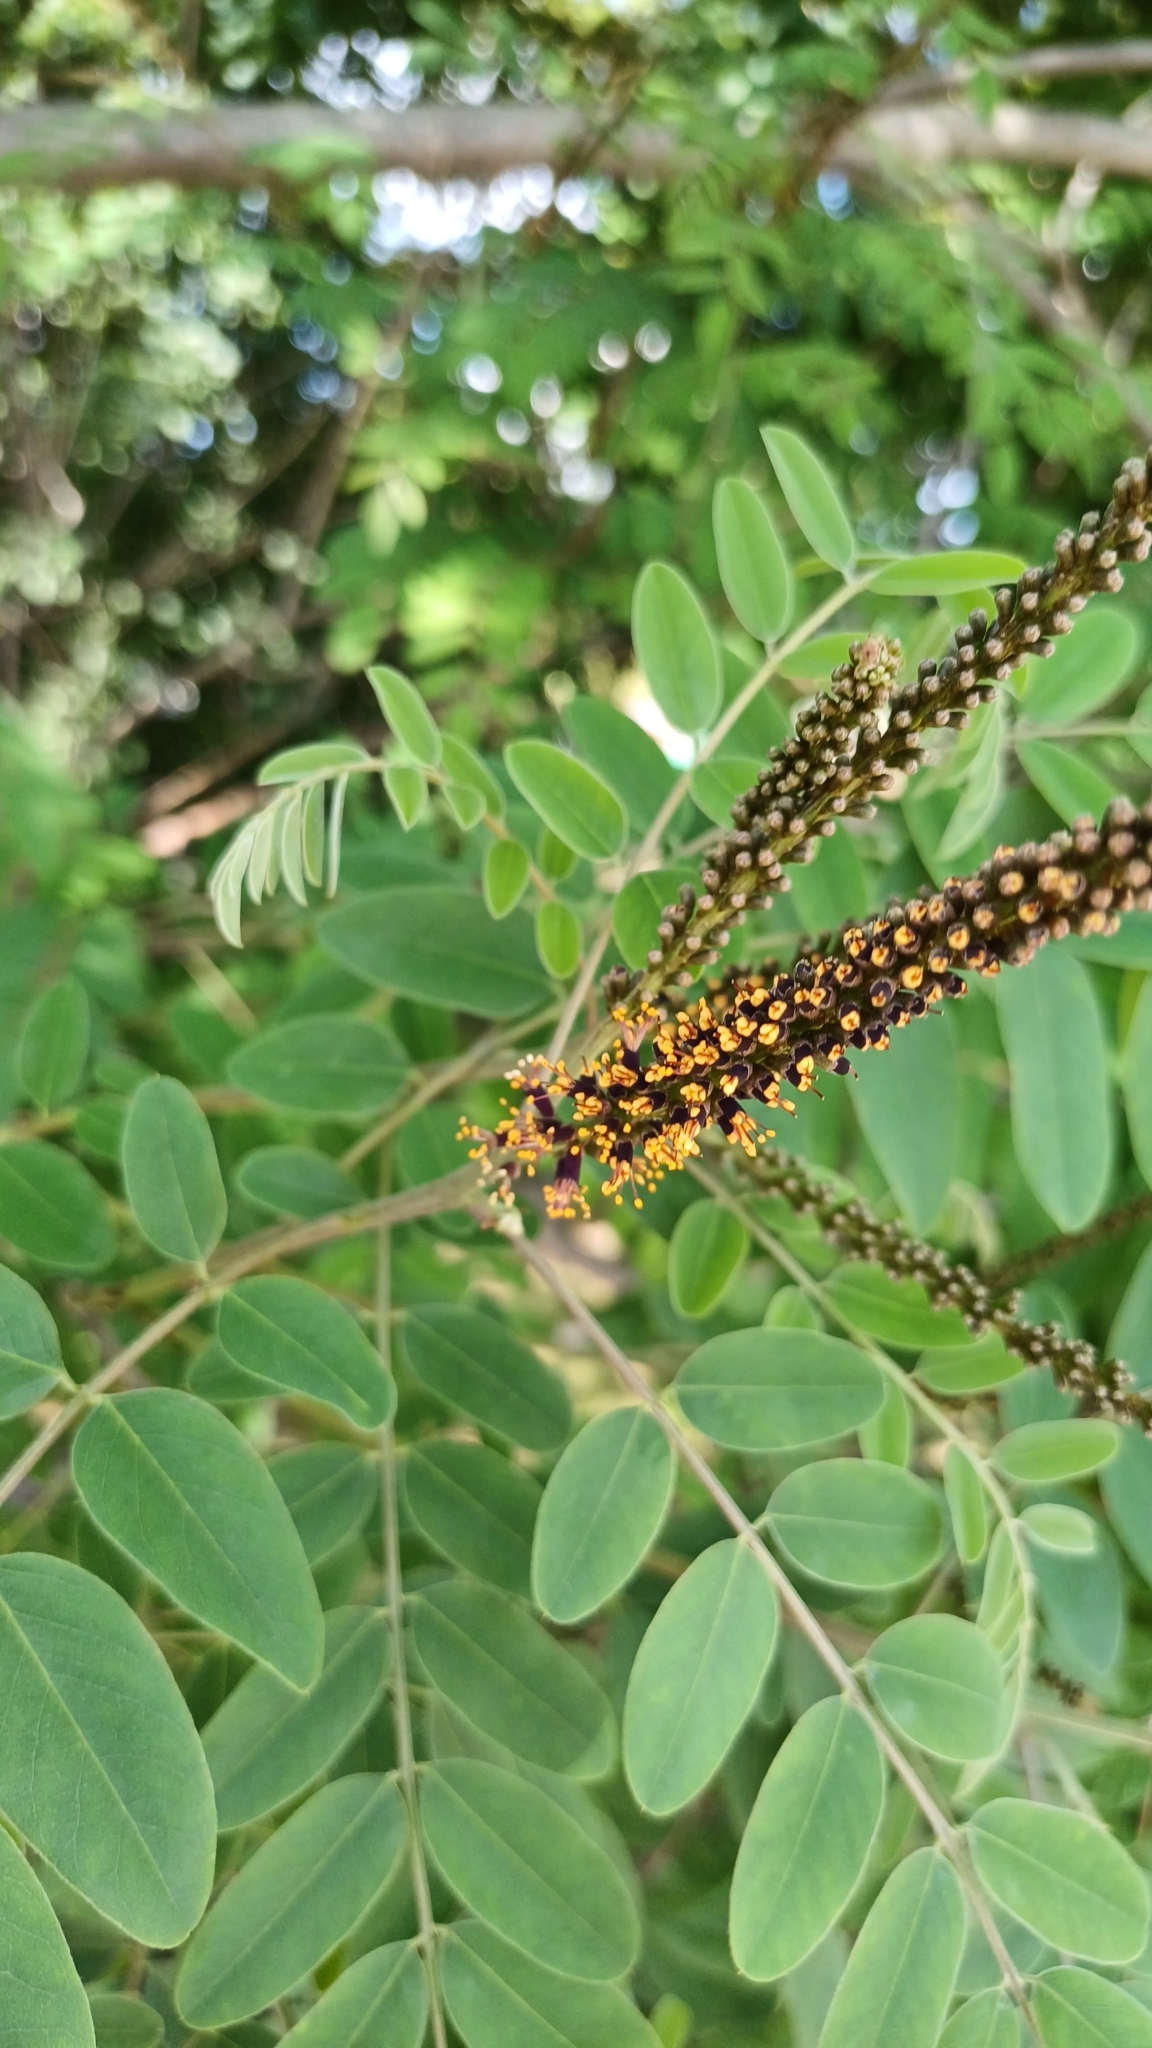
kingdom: Plantae
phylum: Tracheophyta
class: Magnoliopsida
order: Fabales
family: Fabaceae
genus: Amorpha
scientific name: Amorpha fruticosa
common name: False indigo
